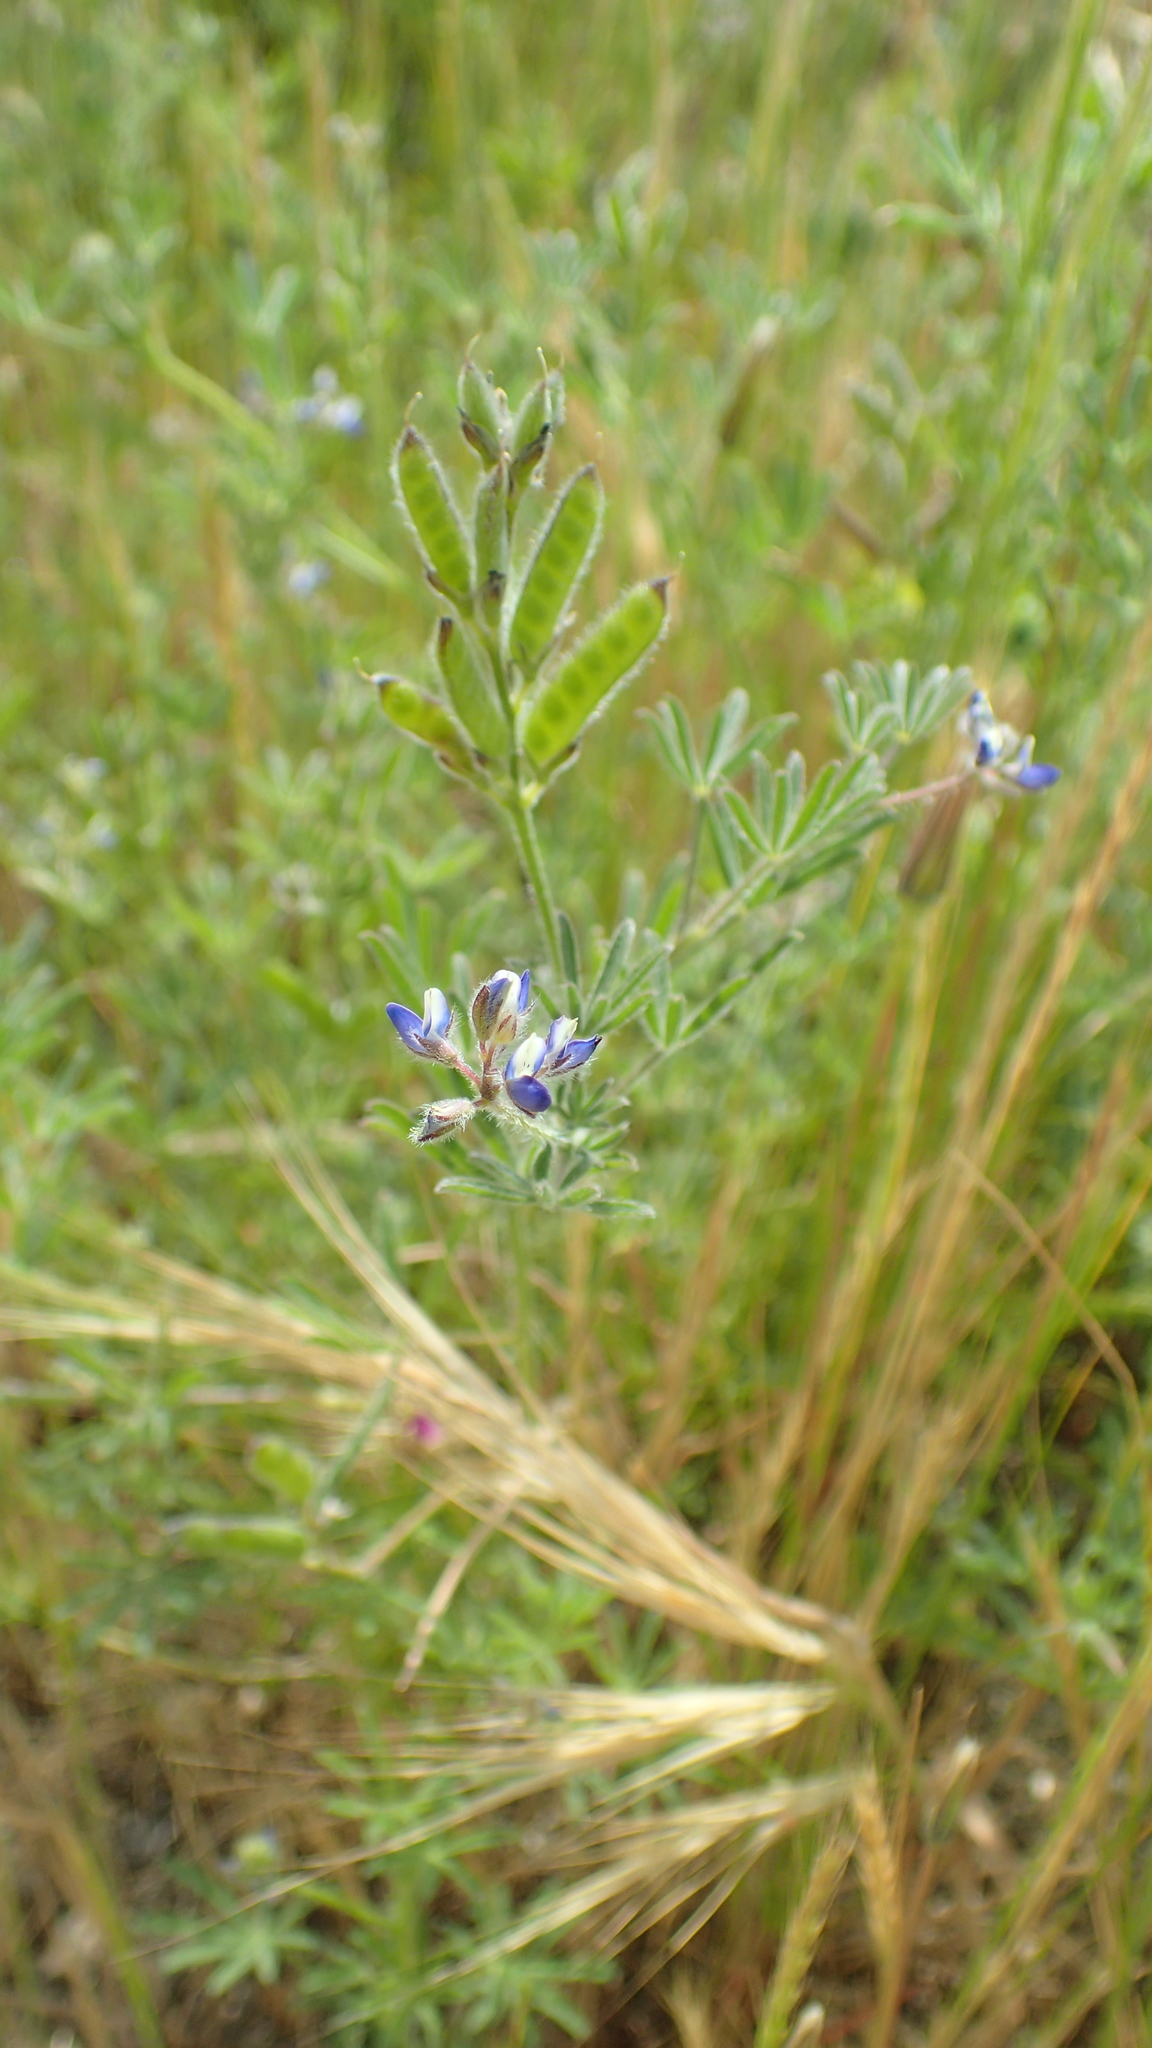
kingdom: Plantae
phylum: Tracheophyta
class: Magnoliopsida
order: Fabales
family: Fabaceae
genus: Lupinus
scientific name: Lupinus bicolor
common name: Miniature lupine
